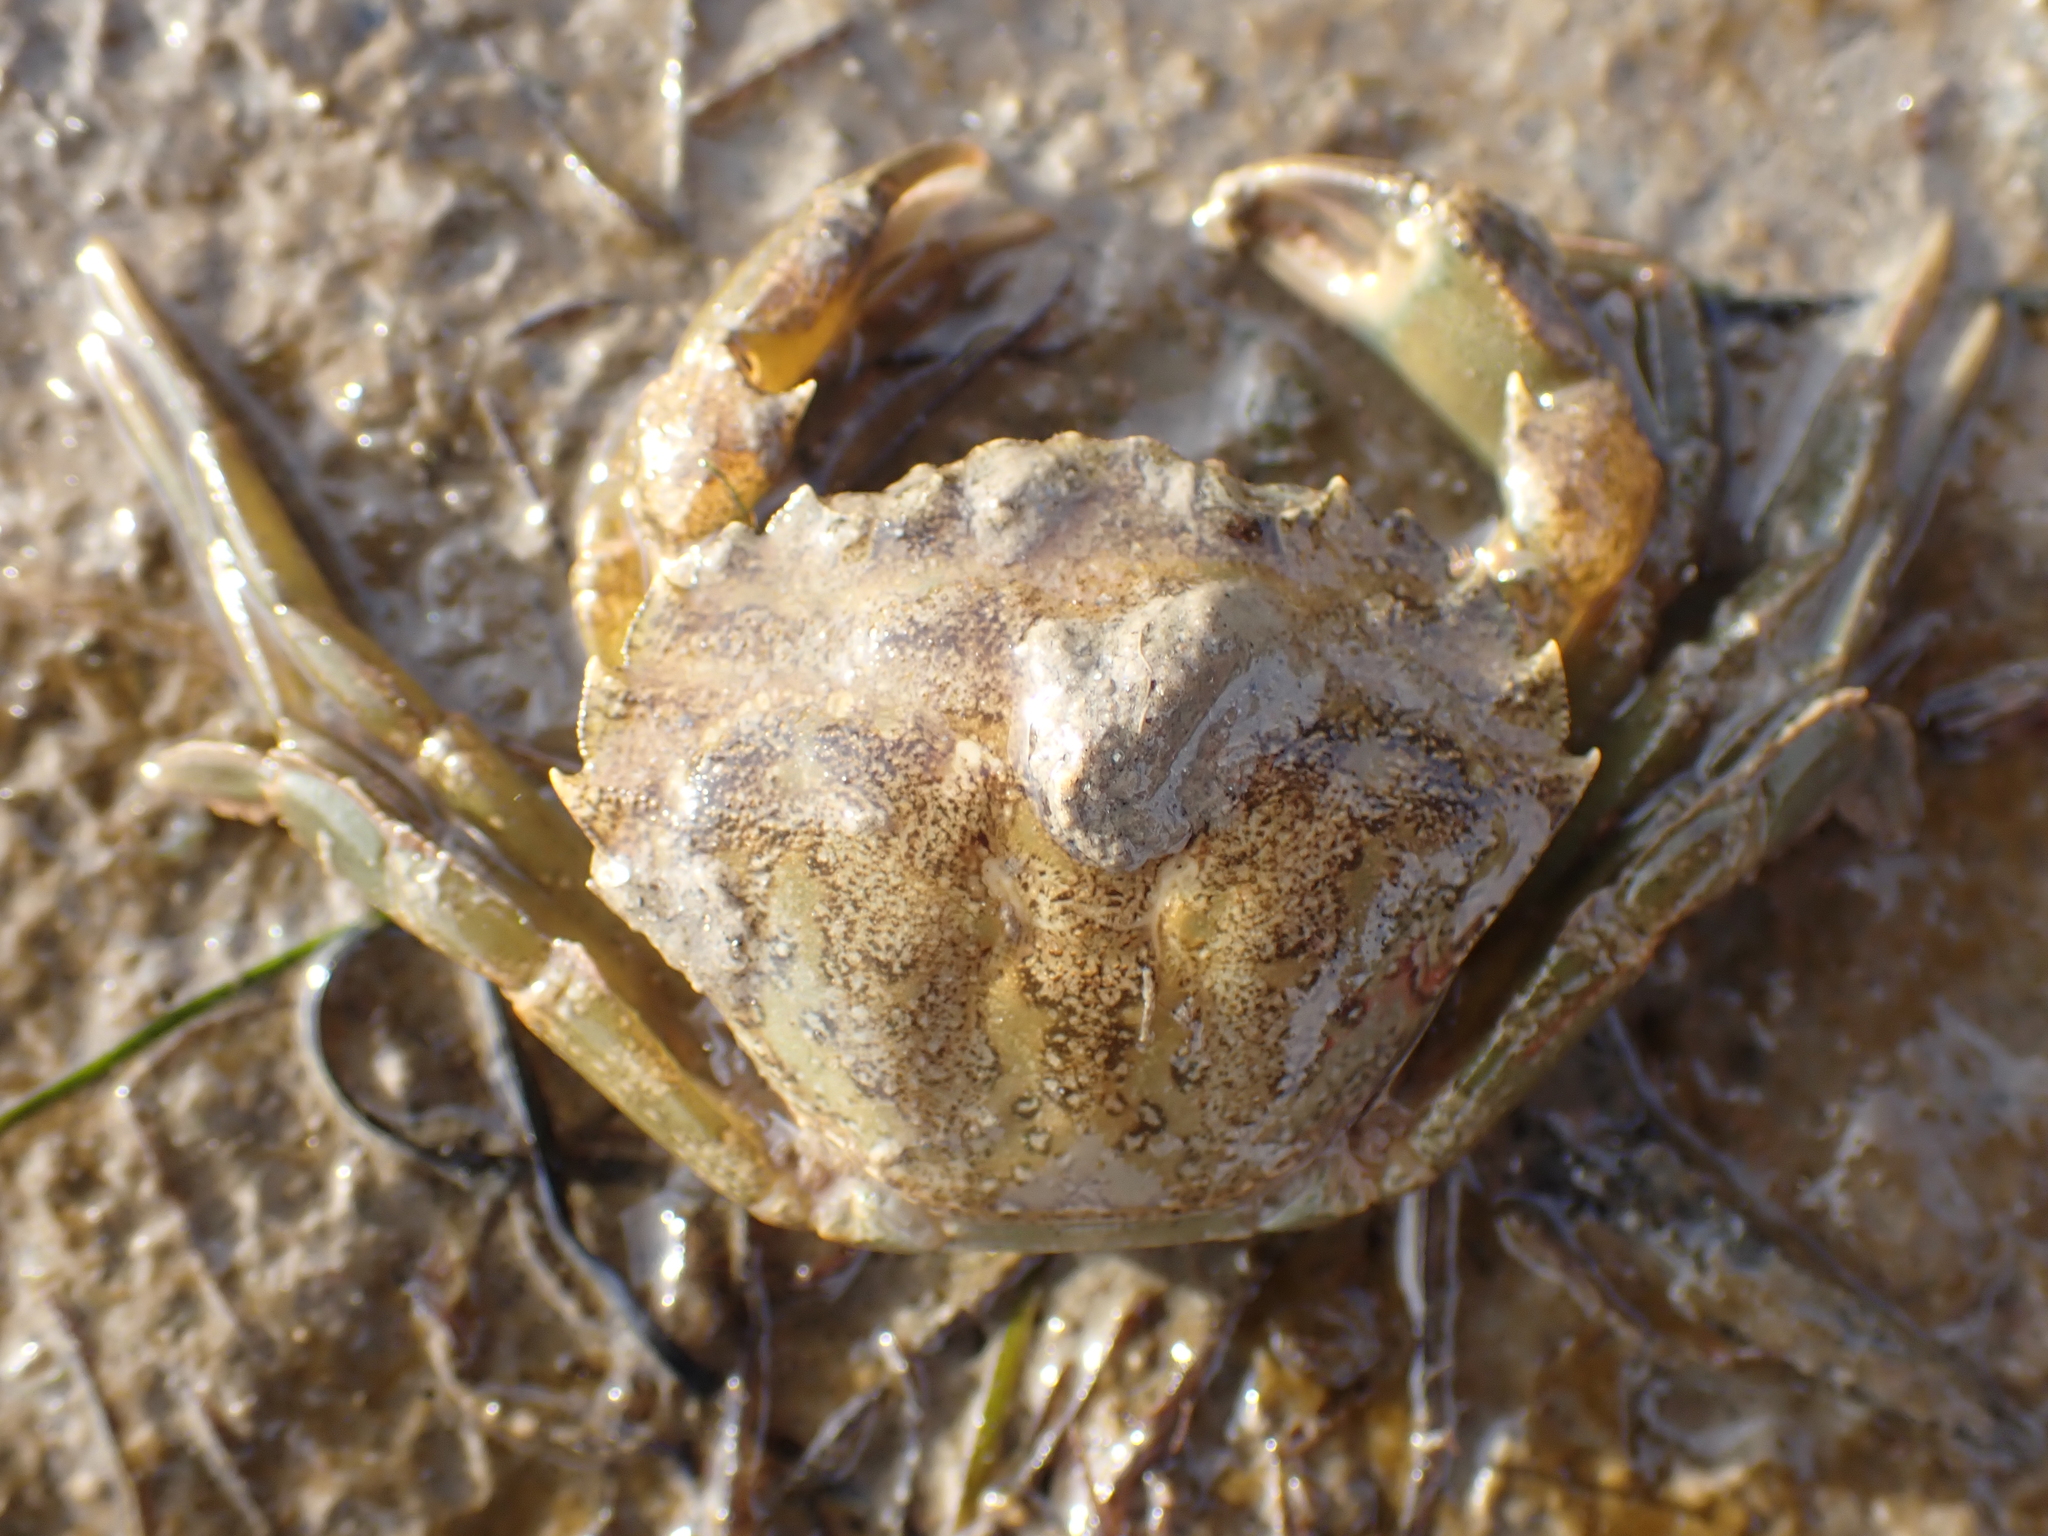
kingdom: Animalia
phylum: Arthropoda
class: Malacostraca
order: Decapoda
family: Carcinidae
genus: Carcinus
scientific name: Carcinus maenas
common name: European green crab
